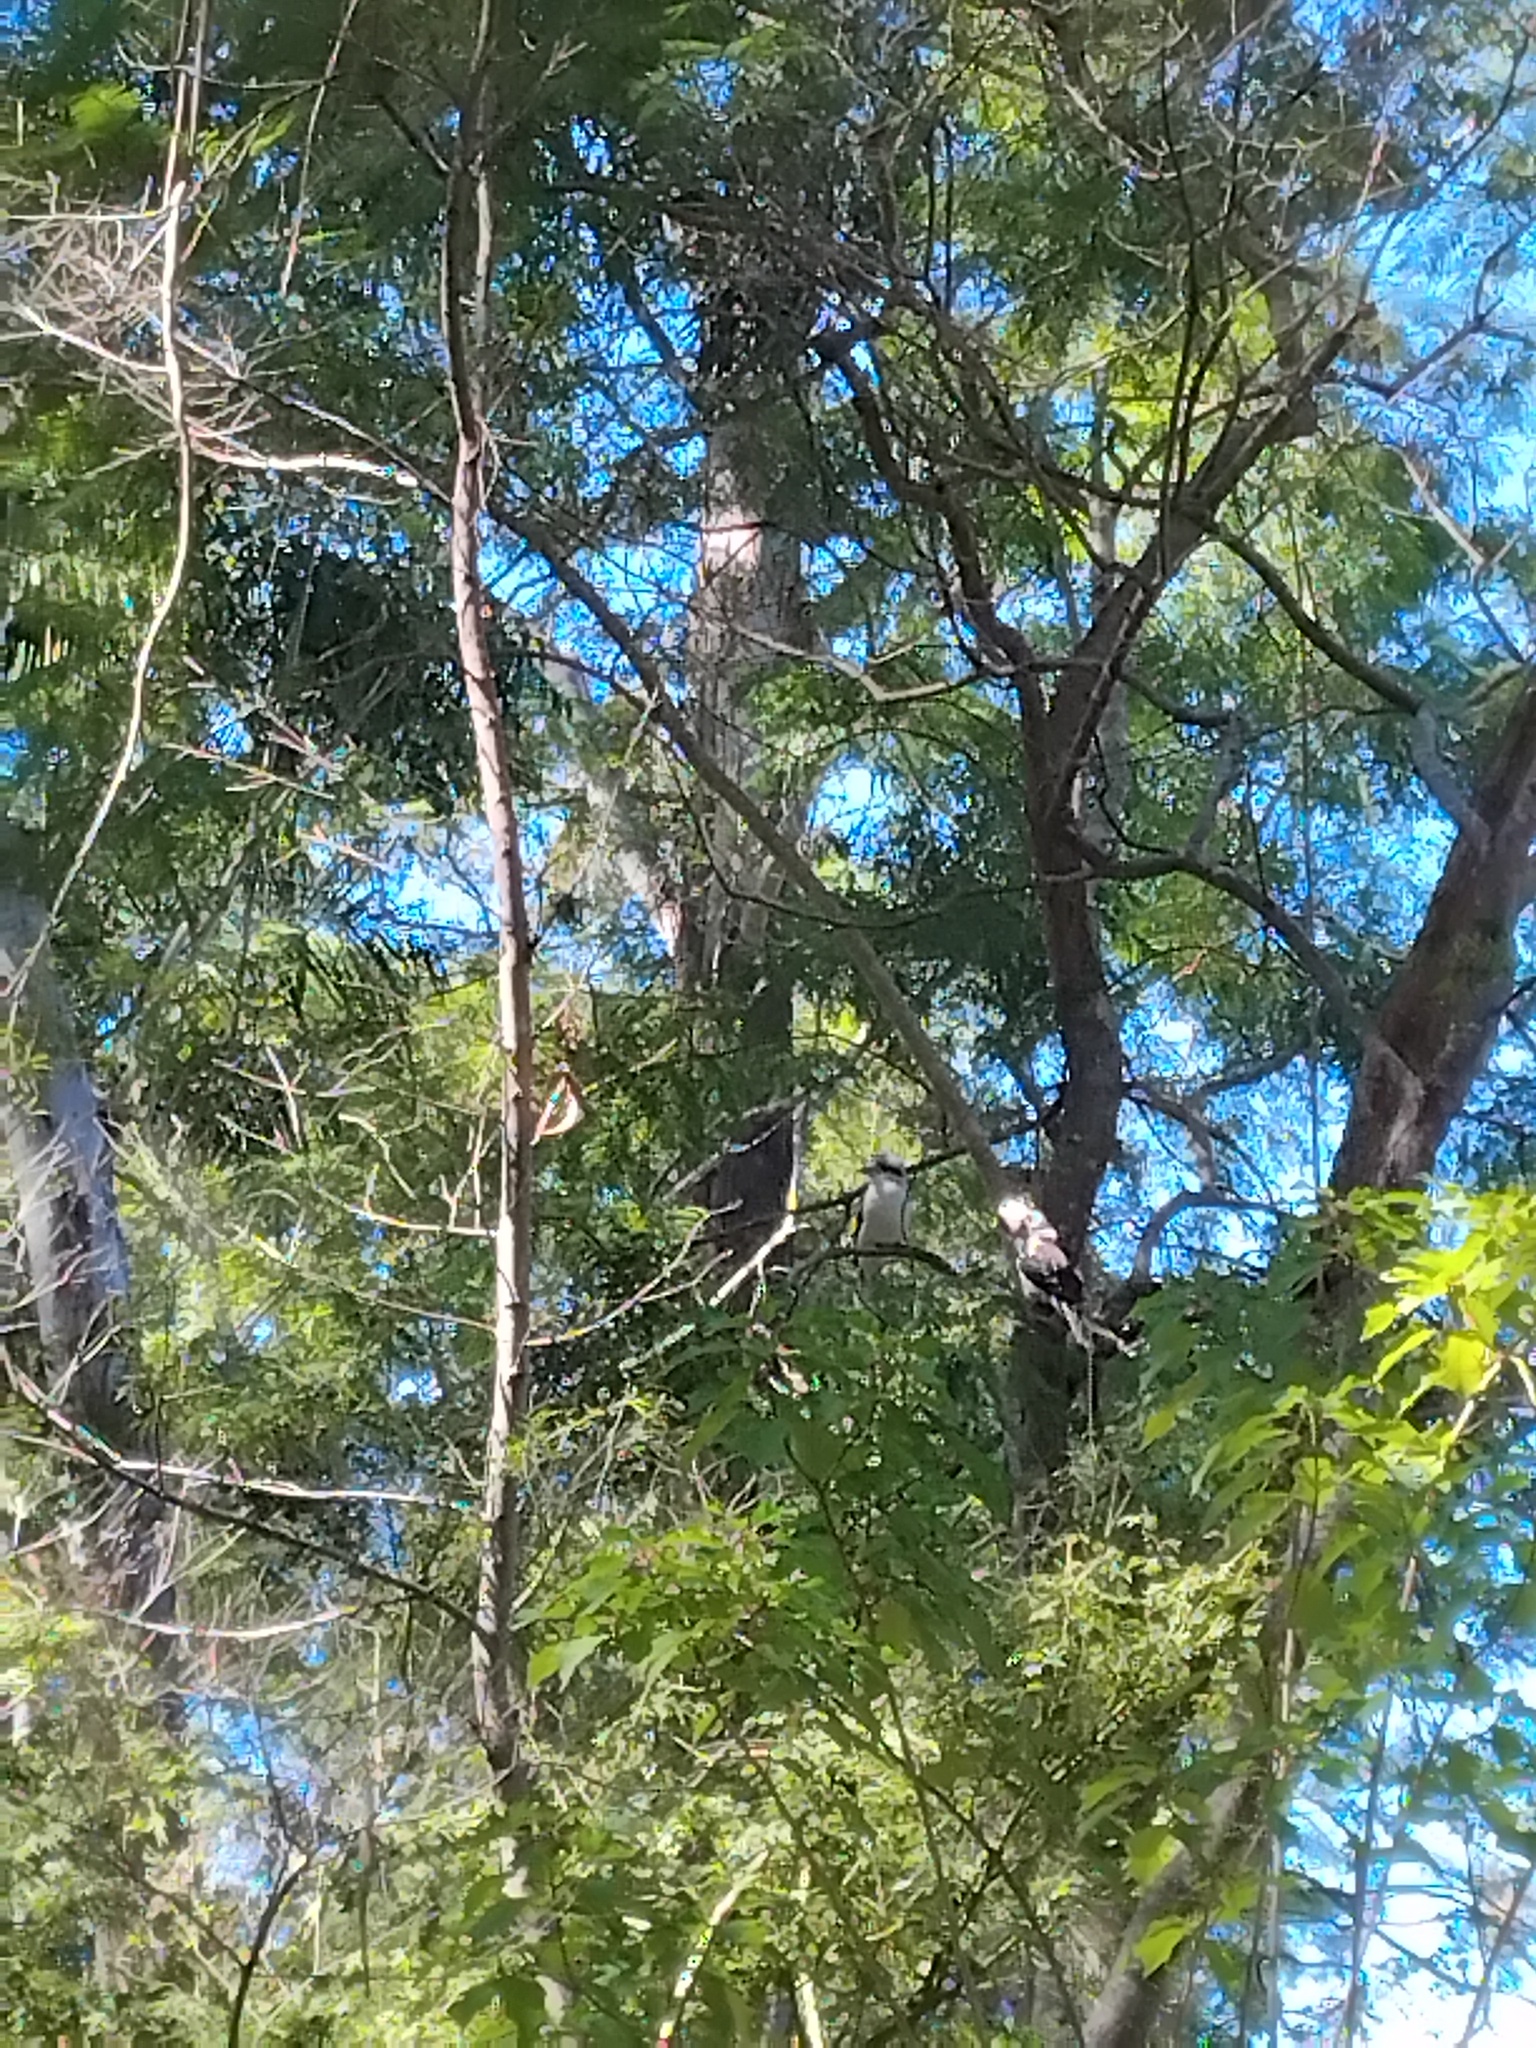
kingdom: Animalia
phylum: Chordata
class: Aves
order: Coraciiformes
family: Alcedinidae
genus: Dacelo
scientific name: Dacelo novaeguineae
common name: Laughing kookaburra
